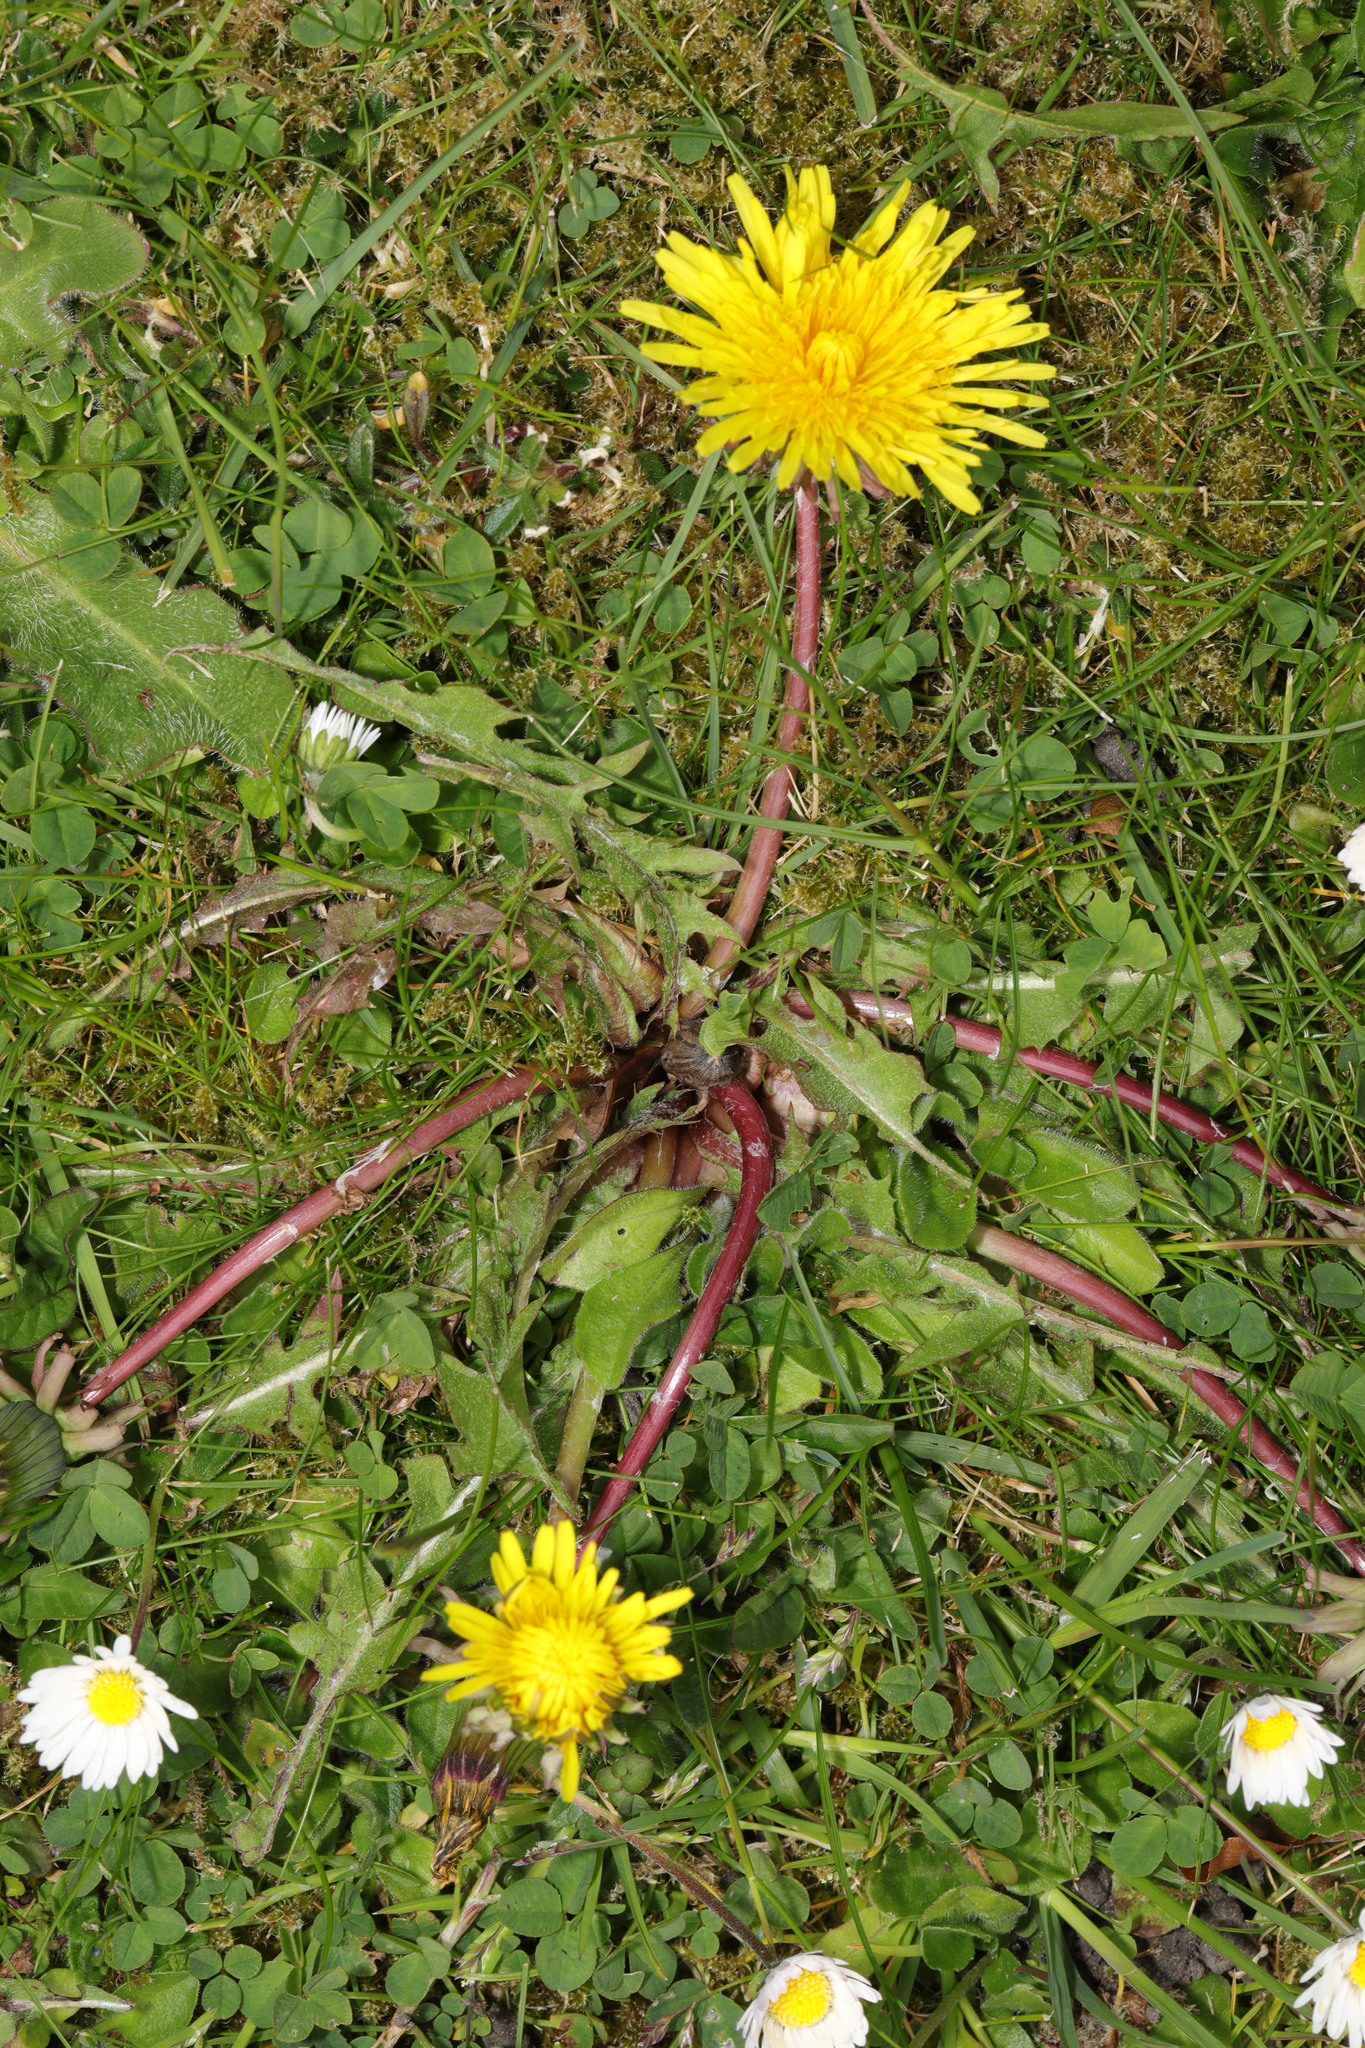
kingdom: Plantae
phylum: Tracheophyta
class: Magnoliopsida
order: Asterales
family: Asteraceae
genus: Taraxacum
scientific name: Taraxacum officinale
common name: Common dandelion
